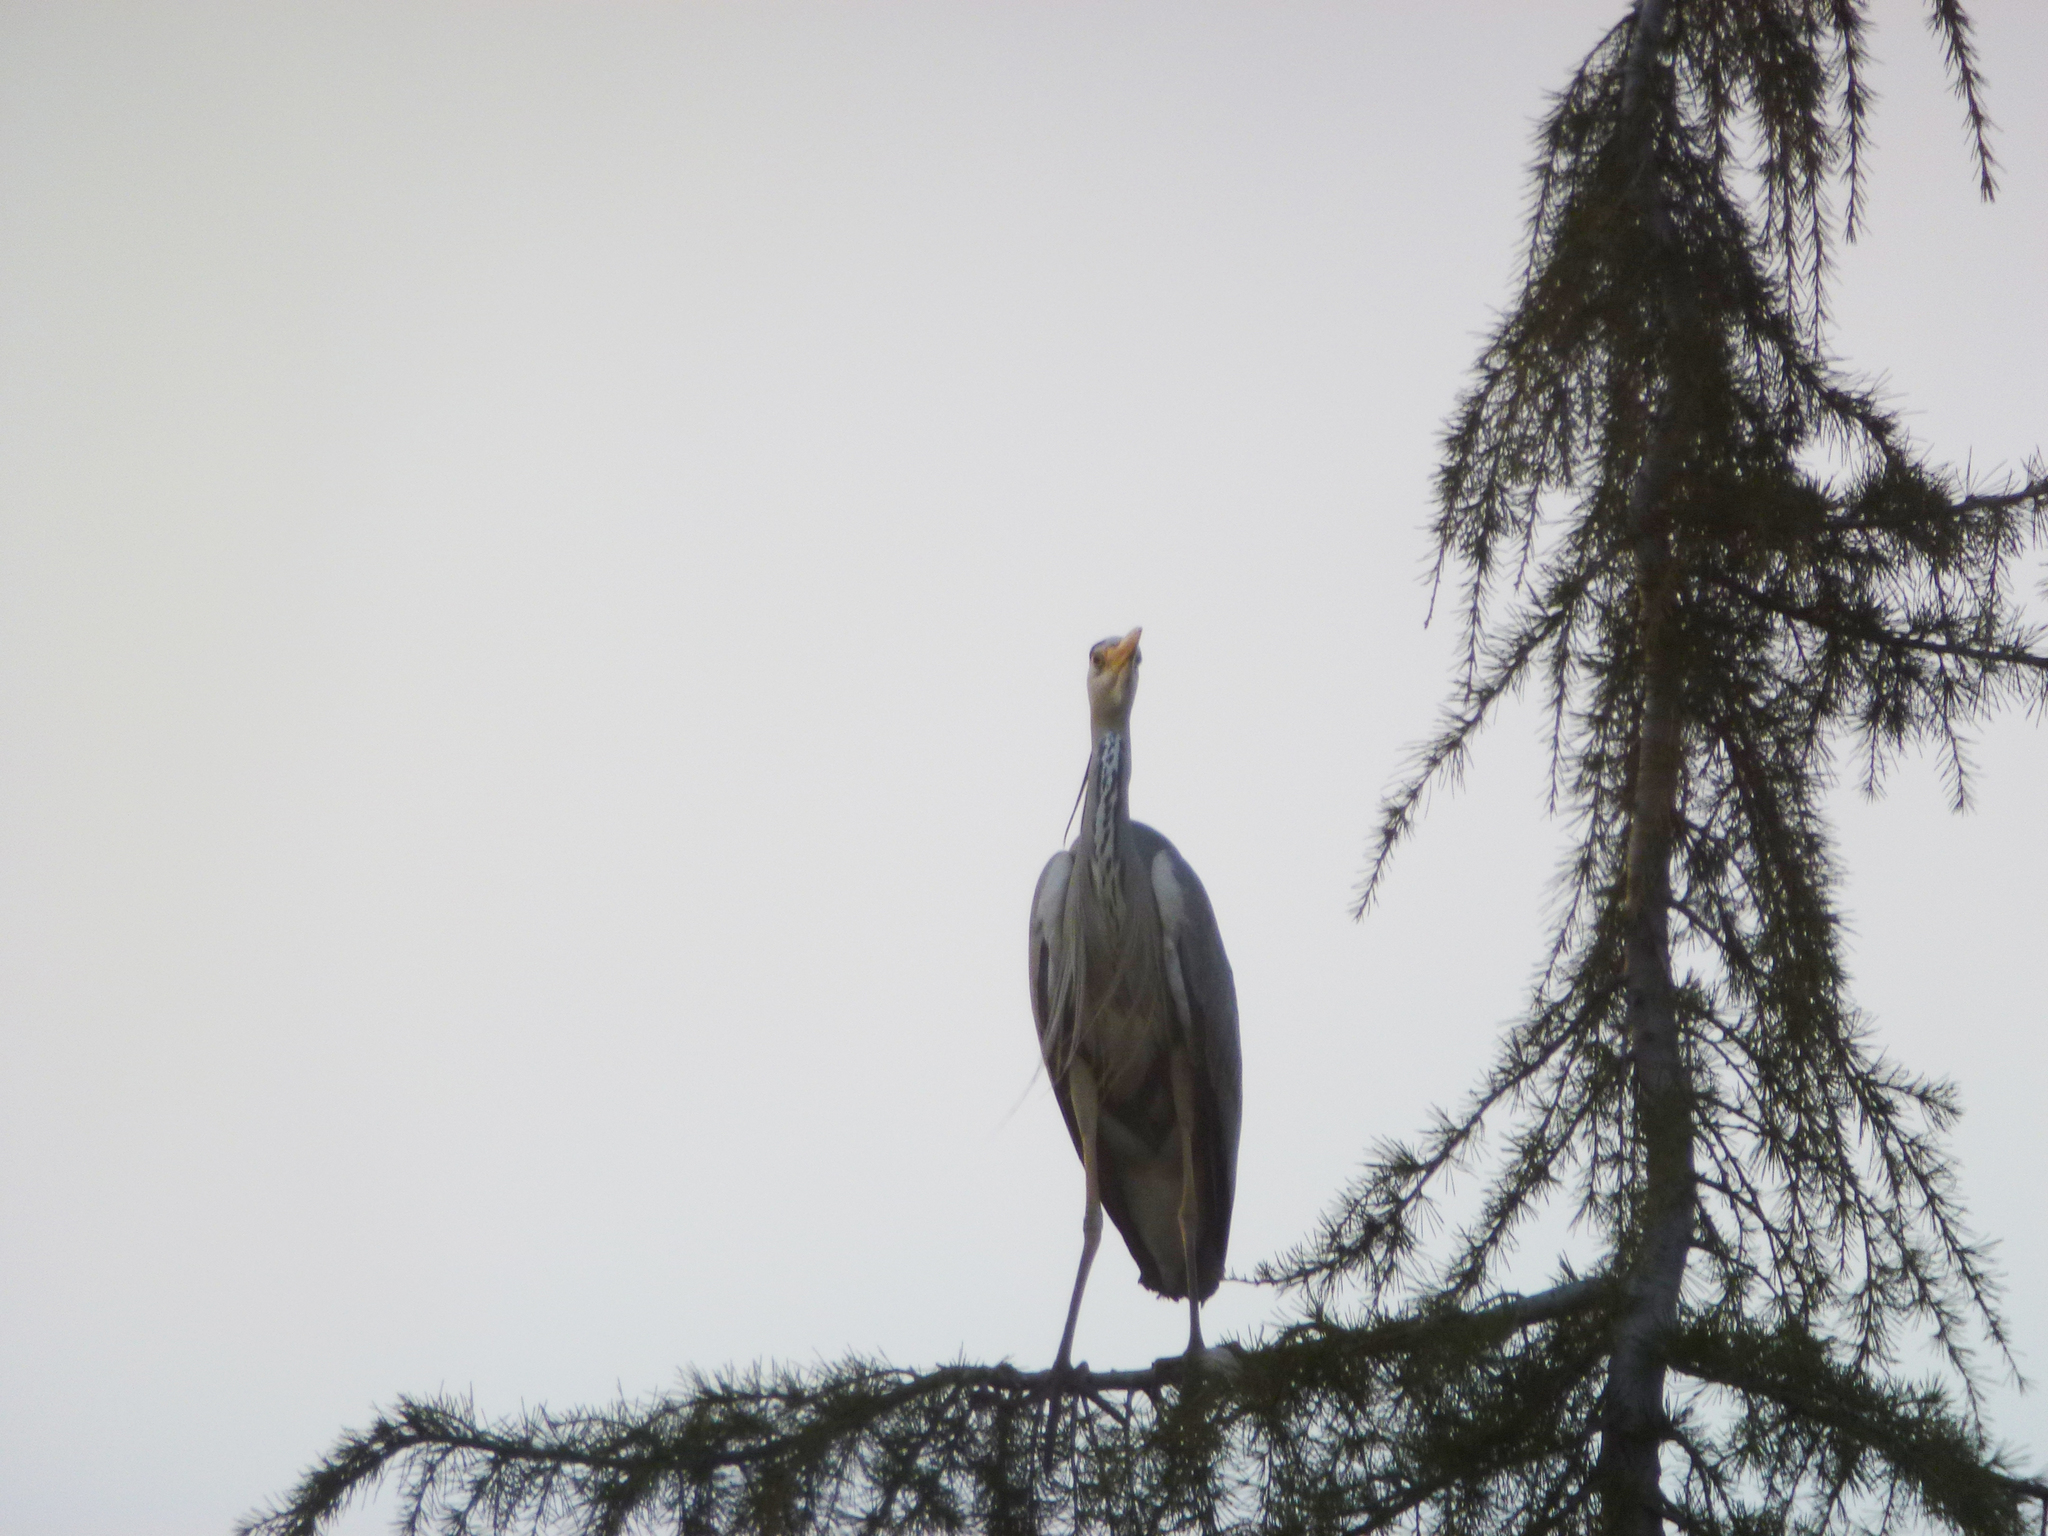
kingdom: Animalia
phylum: Chordata
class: Aves
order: Pelecaniformes
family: Ardeidae
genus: Ardea
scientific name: Ardea cinerea
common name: Grey heron
